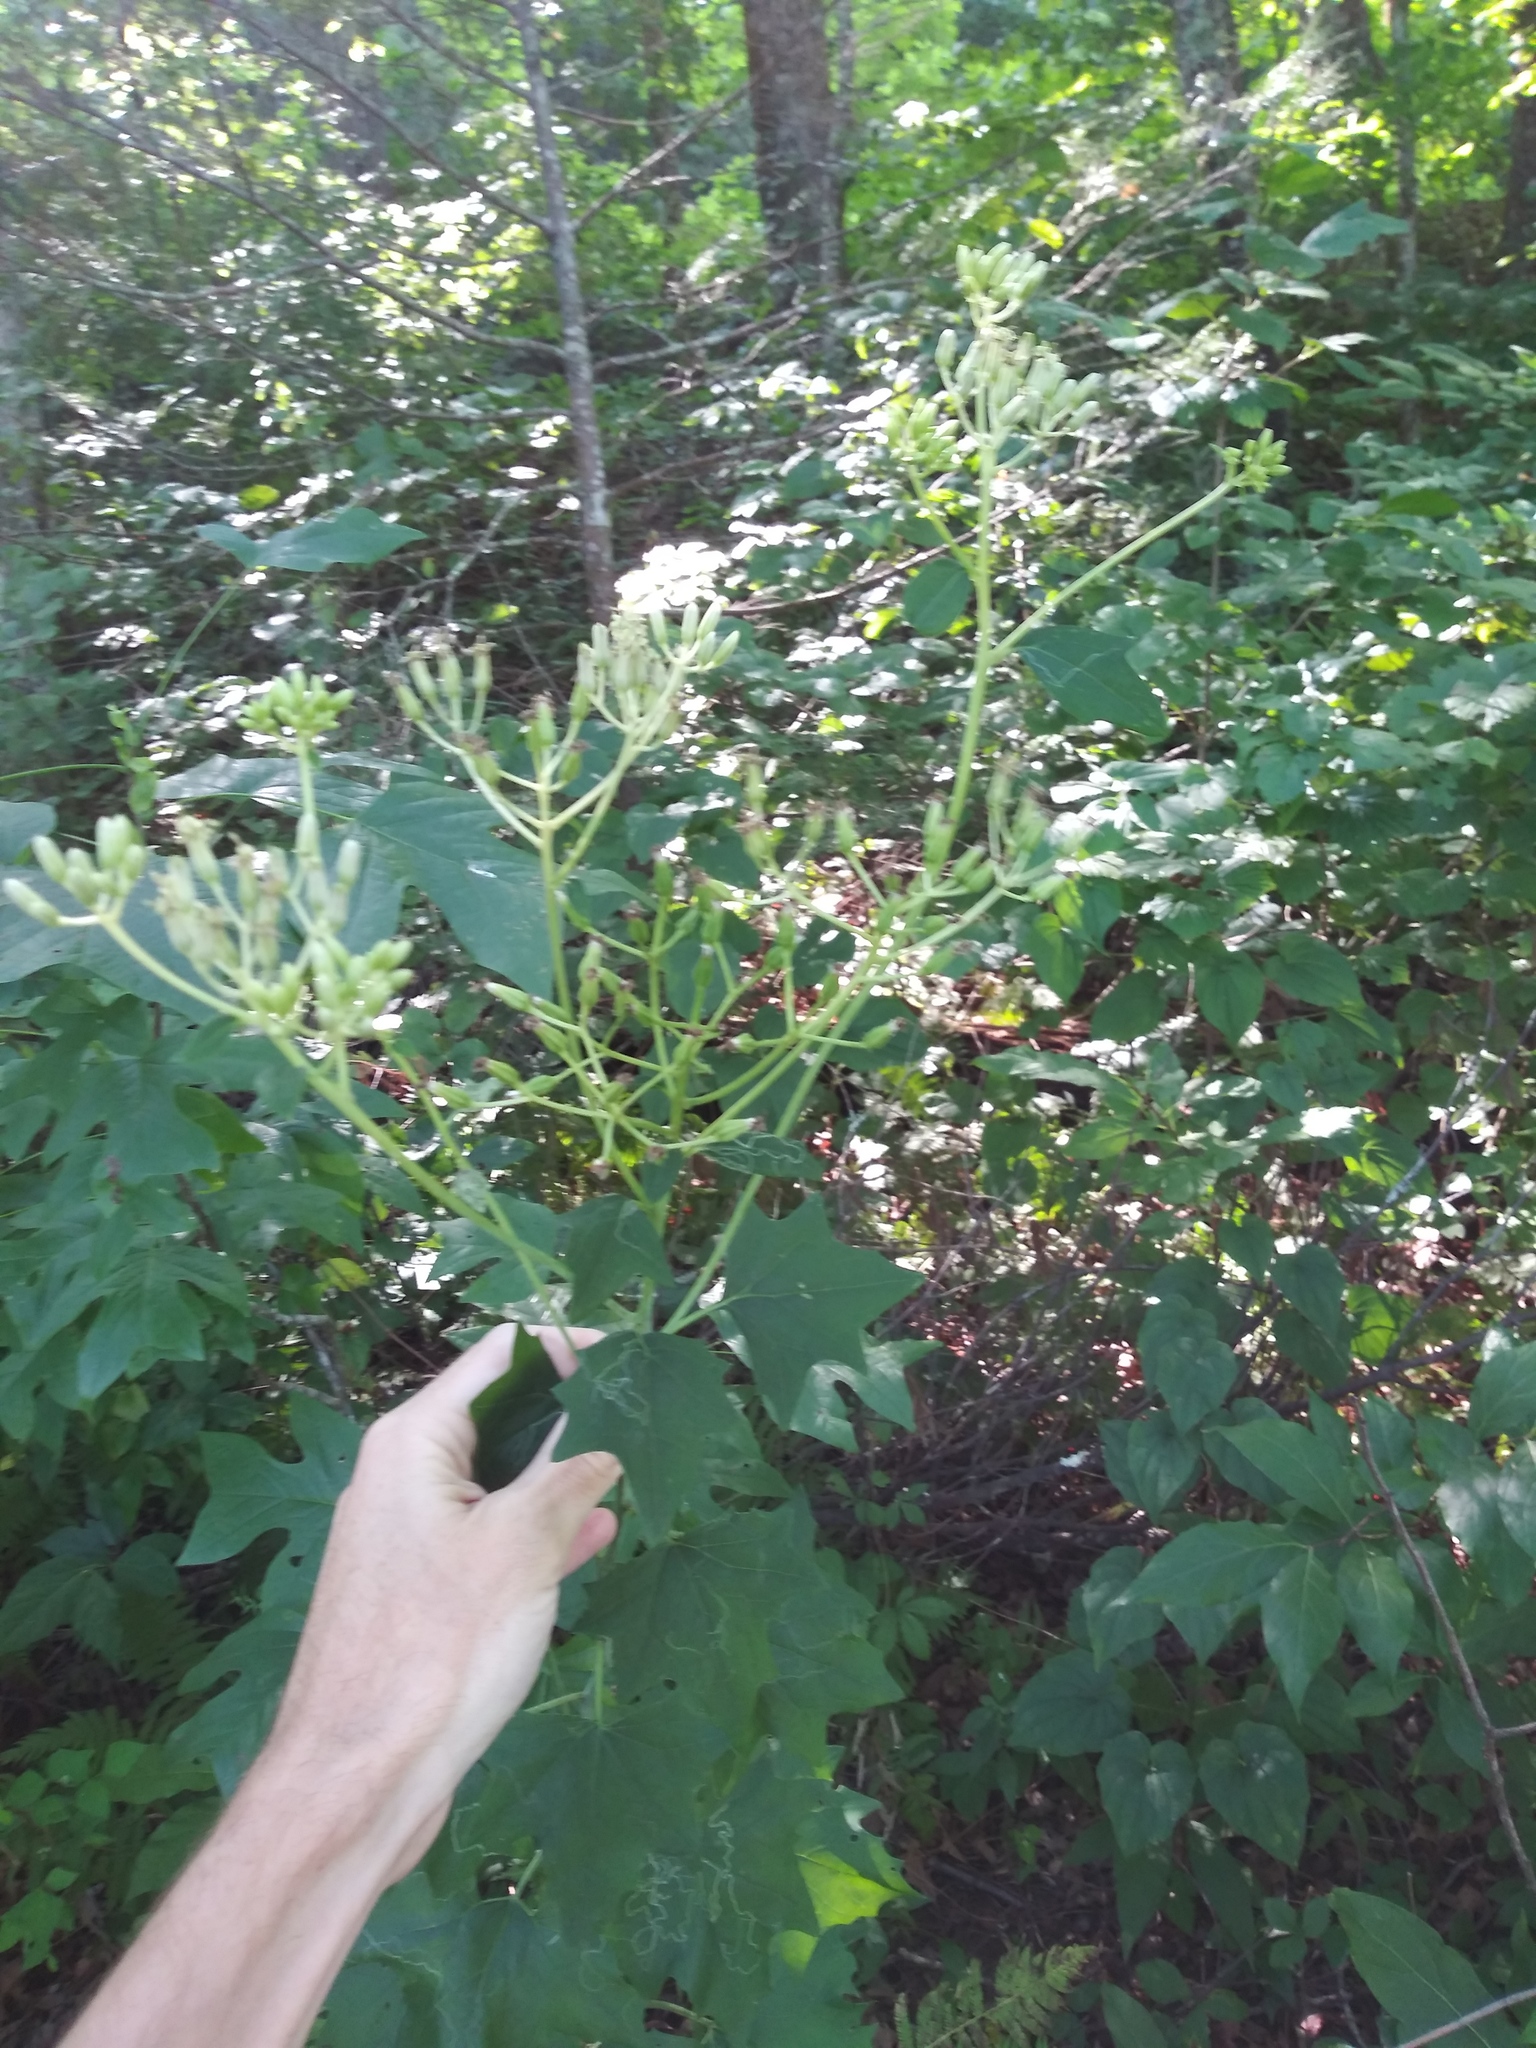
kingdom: Plantae
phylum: Tracheophyta
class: Magnoliopsida
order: Asterales
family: Asteraceae
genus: Arnoglossum
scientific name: Arnoglossum atriplicifolium
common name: Pale indian-plantain
